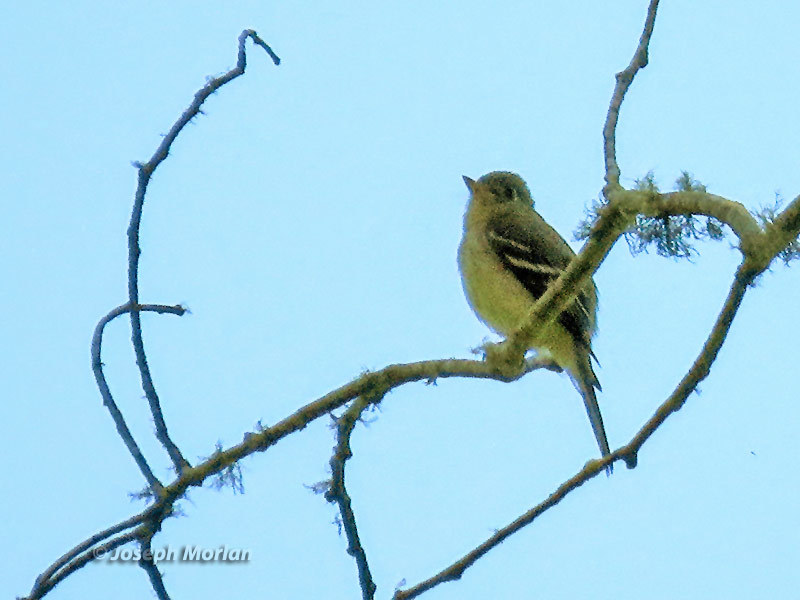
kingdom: Animalia
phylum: Chordata
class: Aves
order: Passeriformes
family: Tyrannidae
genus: Empidonax
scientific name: Empidonax difficilis
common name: Pacific-slope flycatcher
